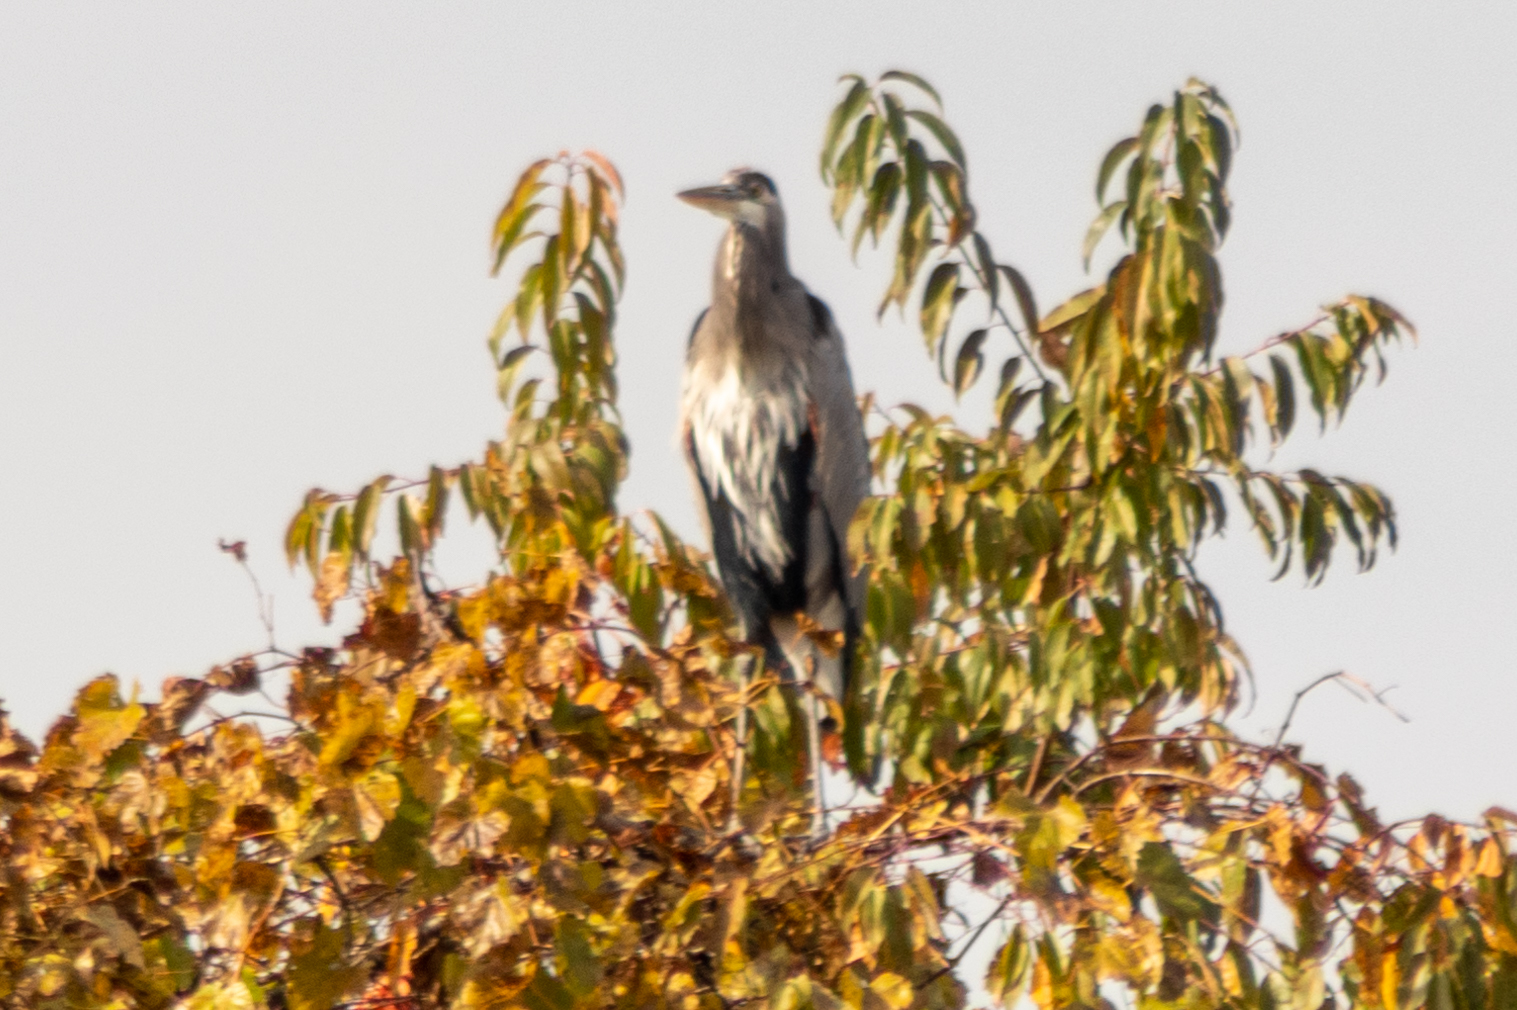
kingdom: Animalia
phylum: Chordata
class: Aves
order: Pelecaniformes
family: Ardeidae
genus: Ardea
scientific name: Ardea herodias
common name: Great blue heron
